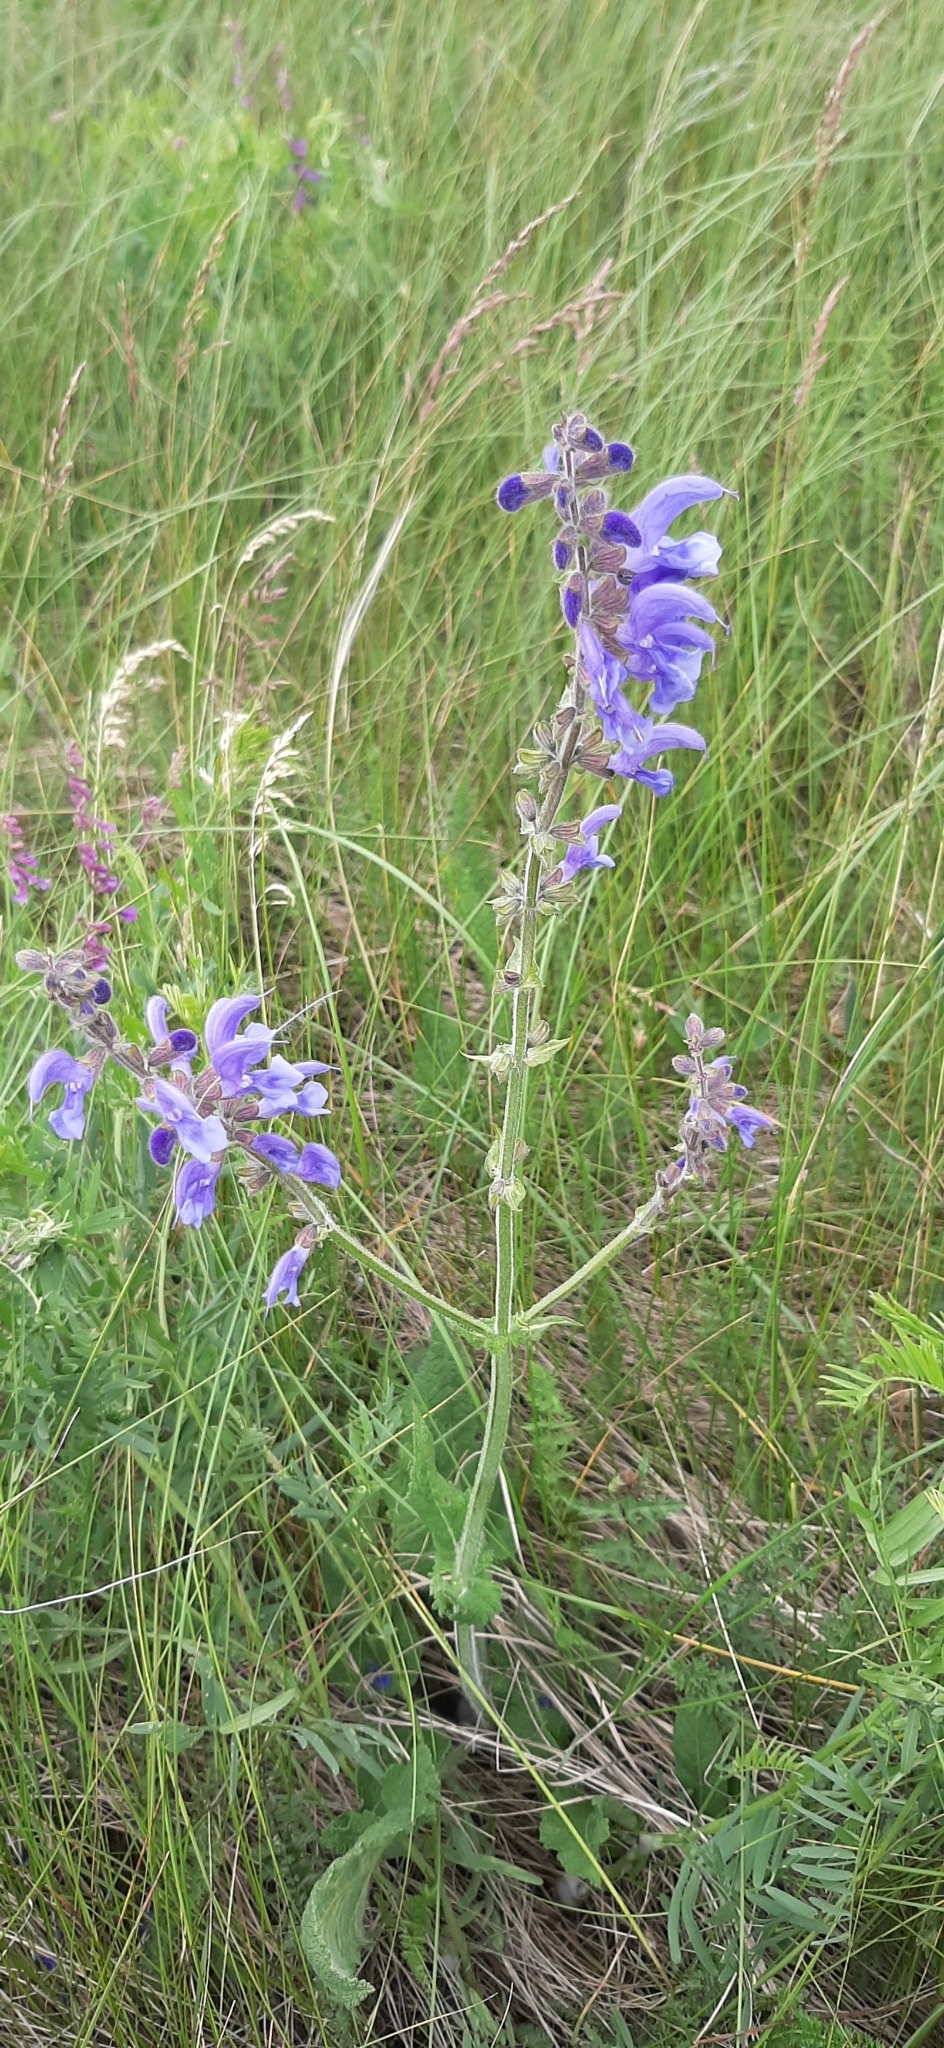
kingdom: Plantae
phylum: Tracheophyta
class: Magnoliopsida
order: Lamiales
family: Lamiaceae
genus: Salvia
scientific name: Salvia pratensis
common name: Meadow sage
